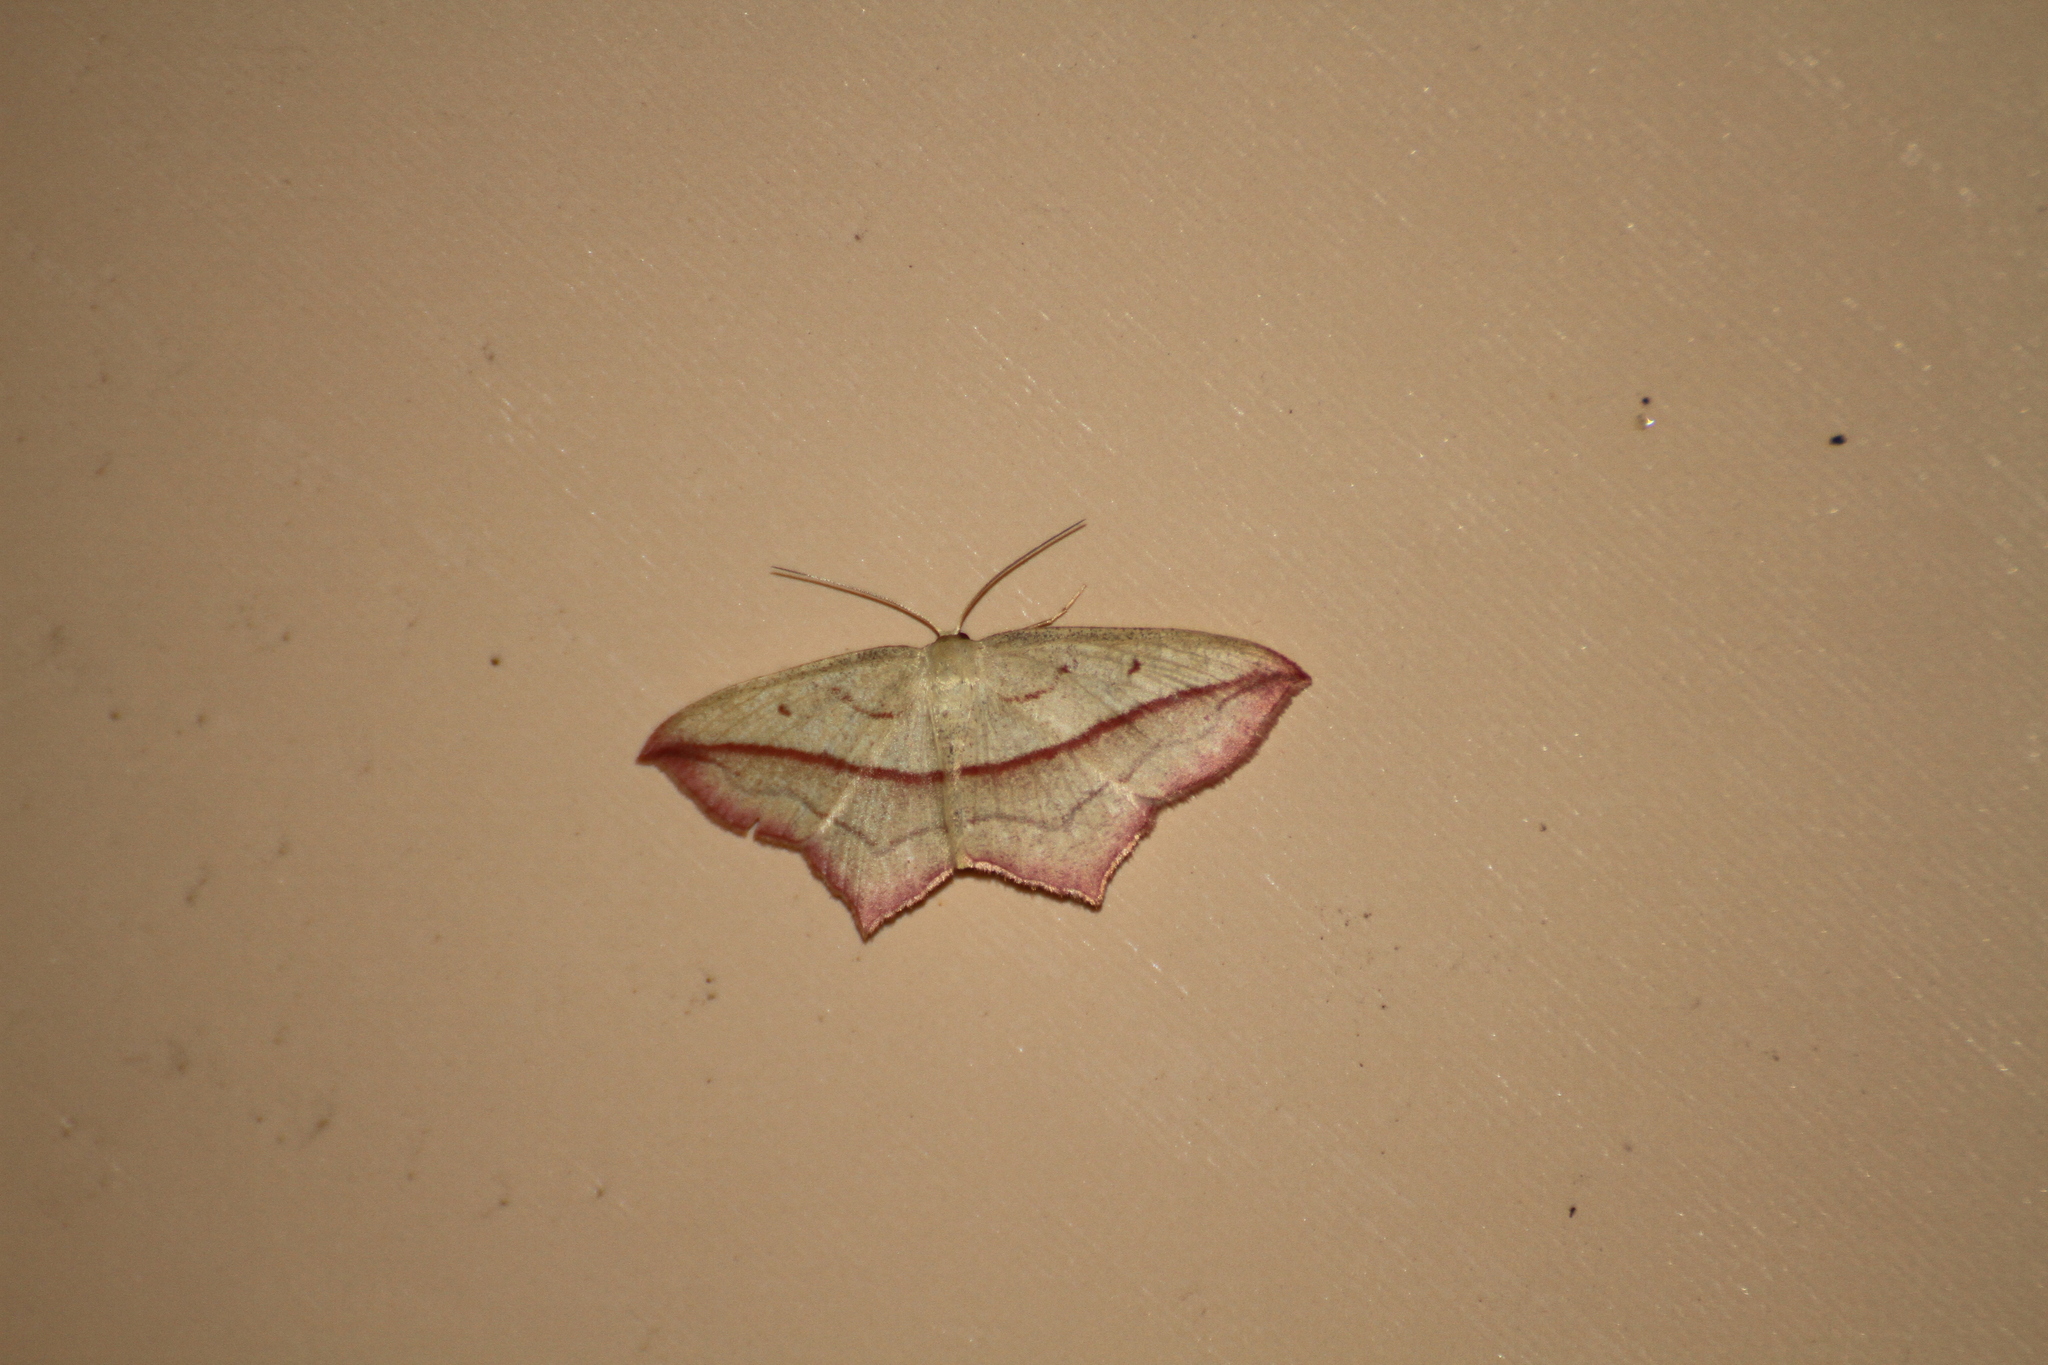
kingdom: Animalia
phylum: Arthropoda
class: Insecta
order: Lepidoptera
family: Geometridae
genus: Timandra
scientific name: Timandra comae
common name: Blood-vein
